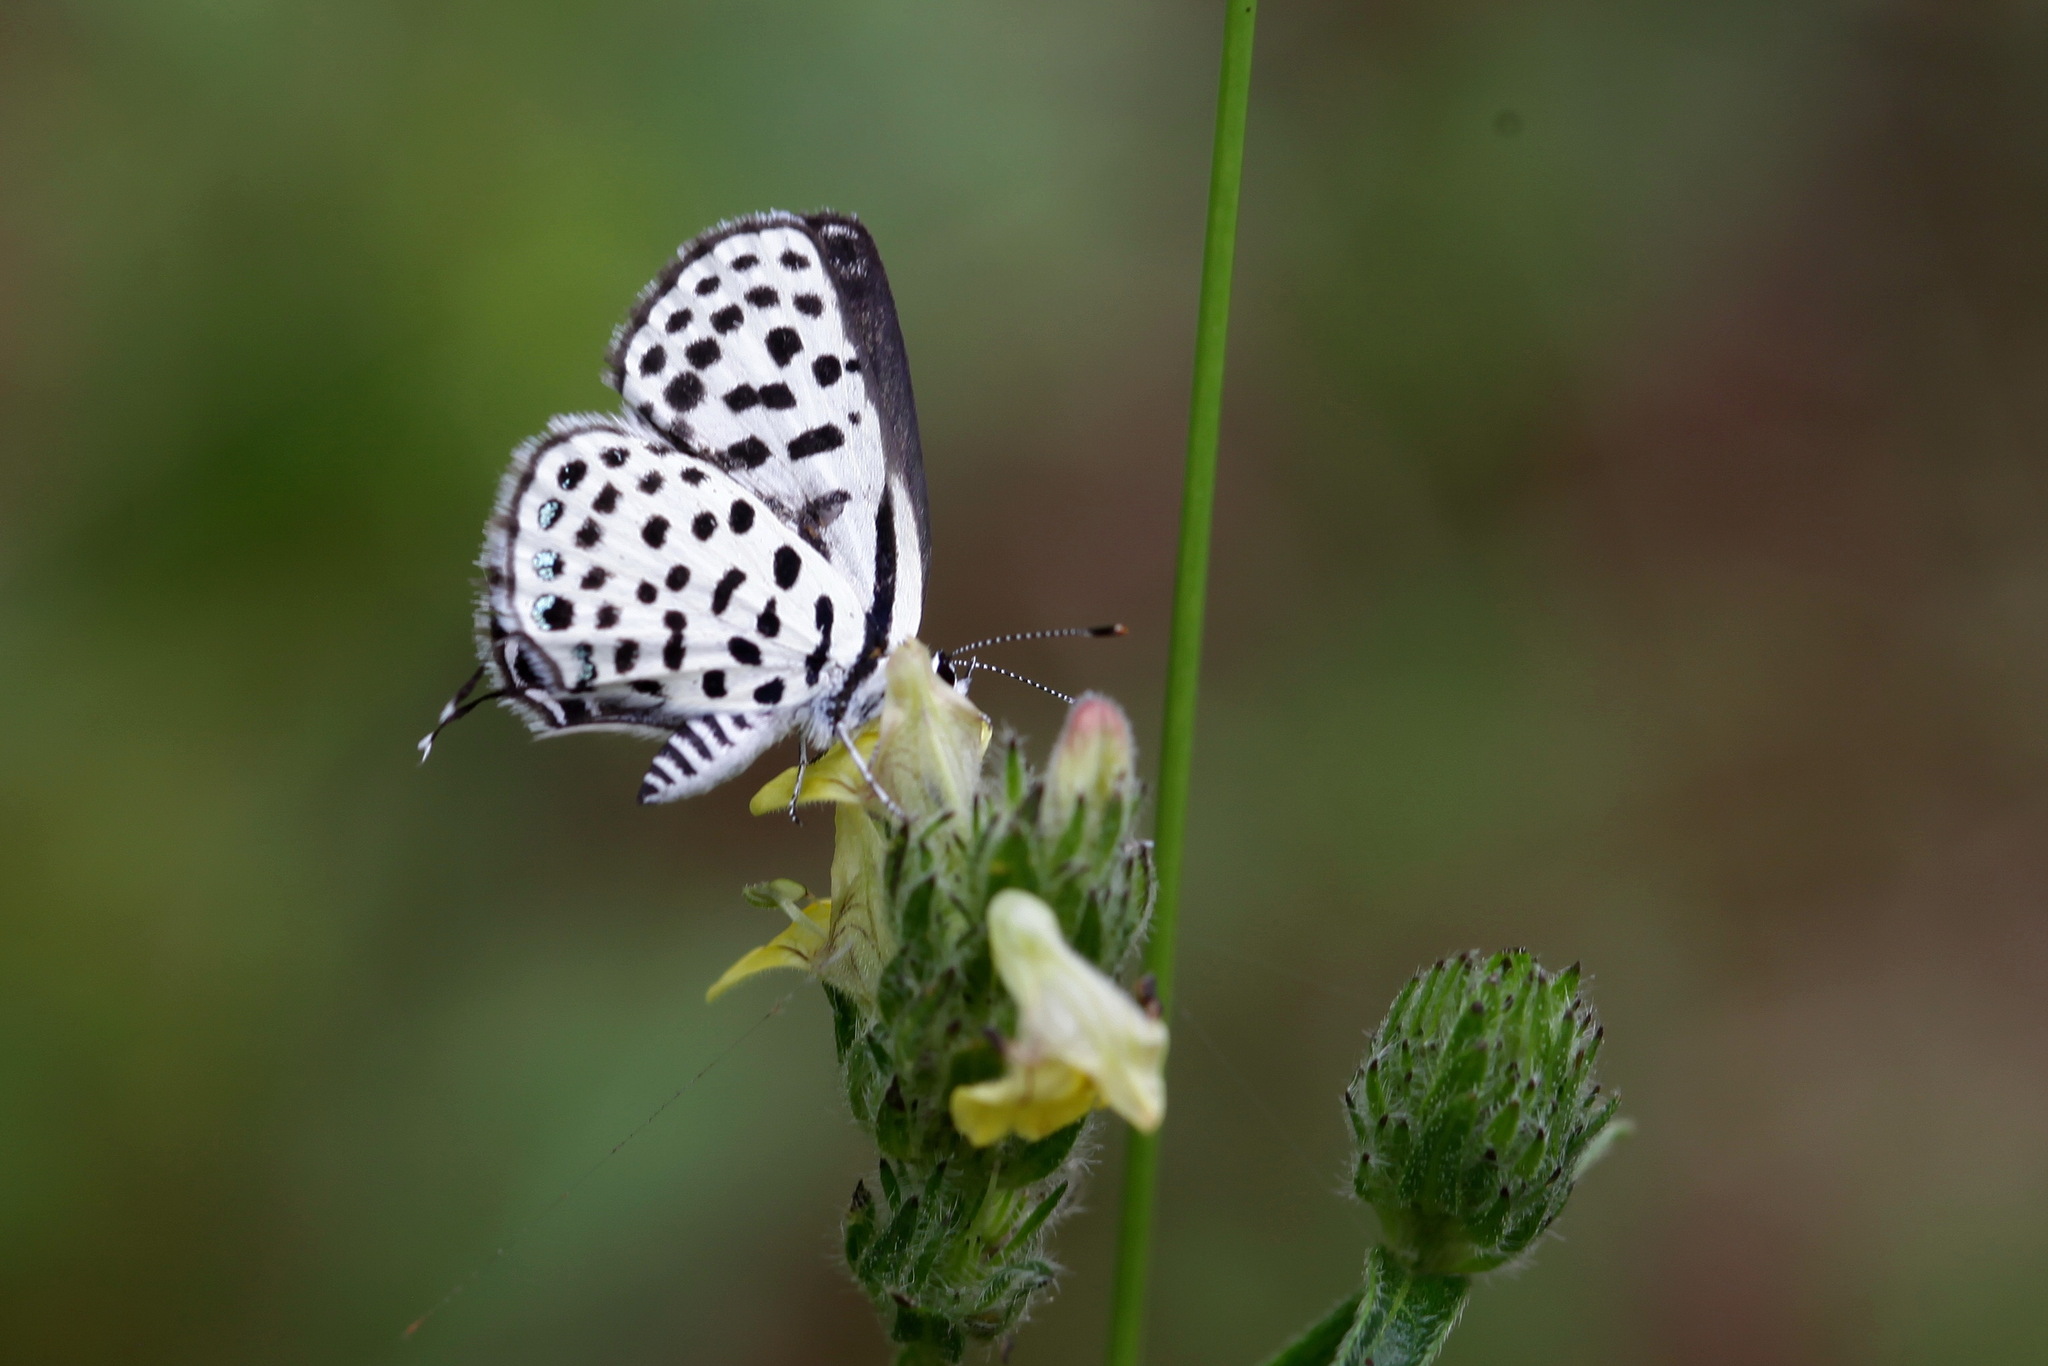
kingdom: Animalia
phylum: Arthropoda
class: Insecta
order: Lepidoptera
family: Lycaenidae
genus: Tarucus
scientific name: Tarucus sybaris
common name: Dotted blue
